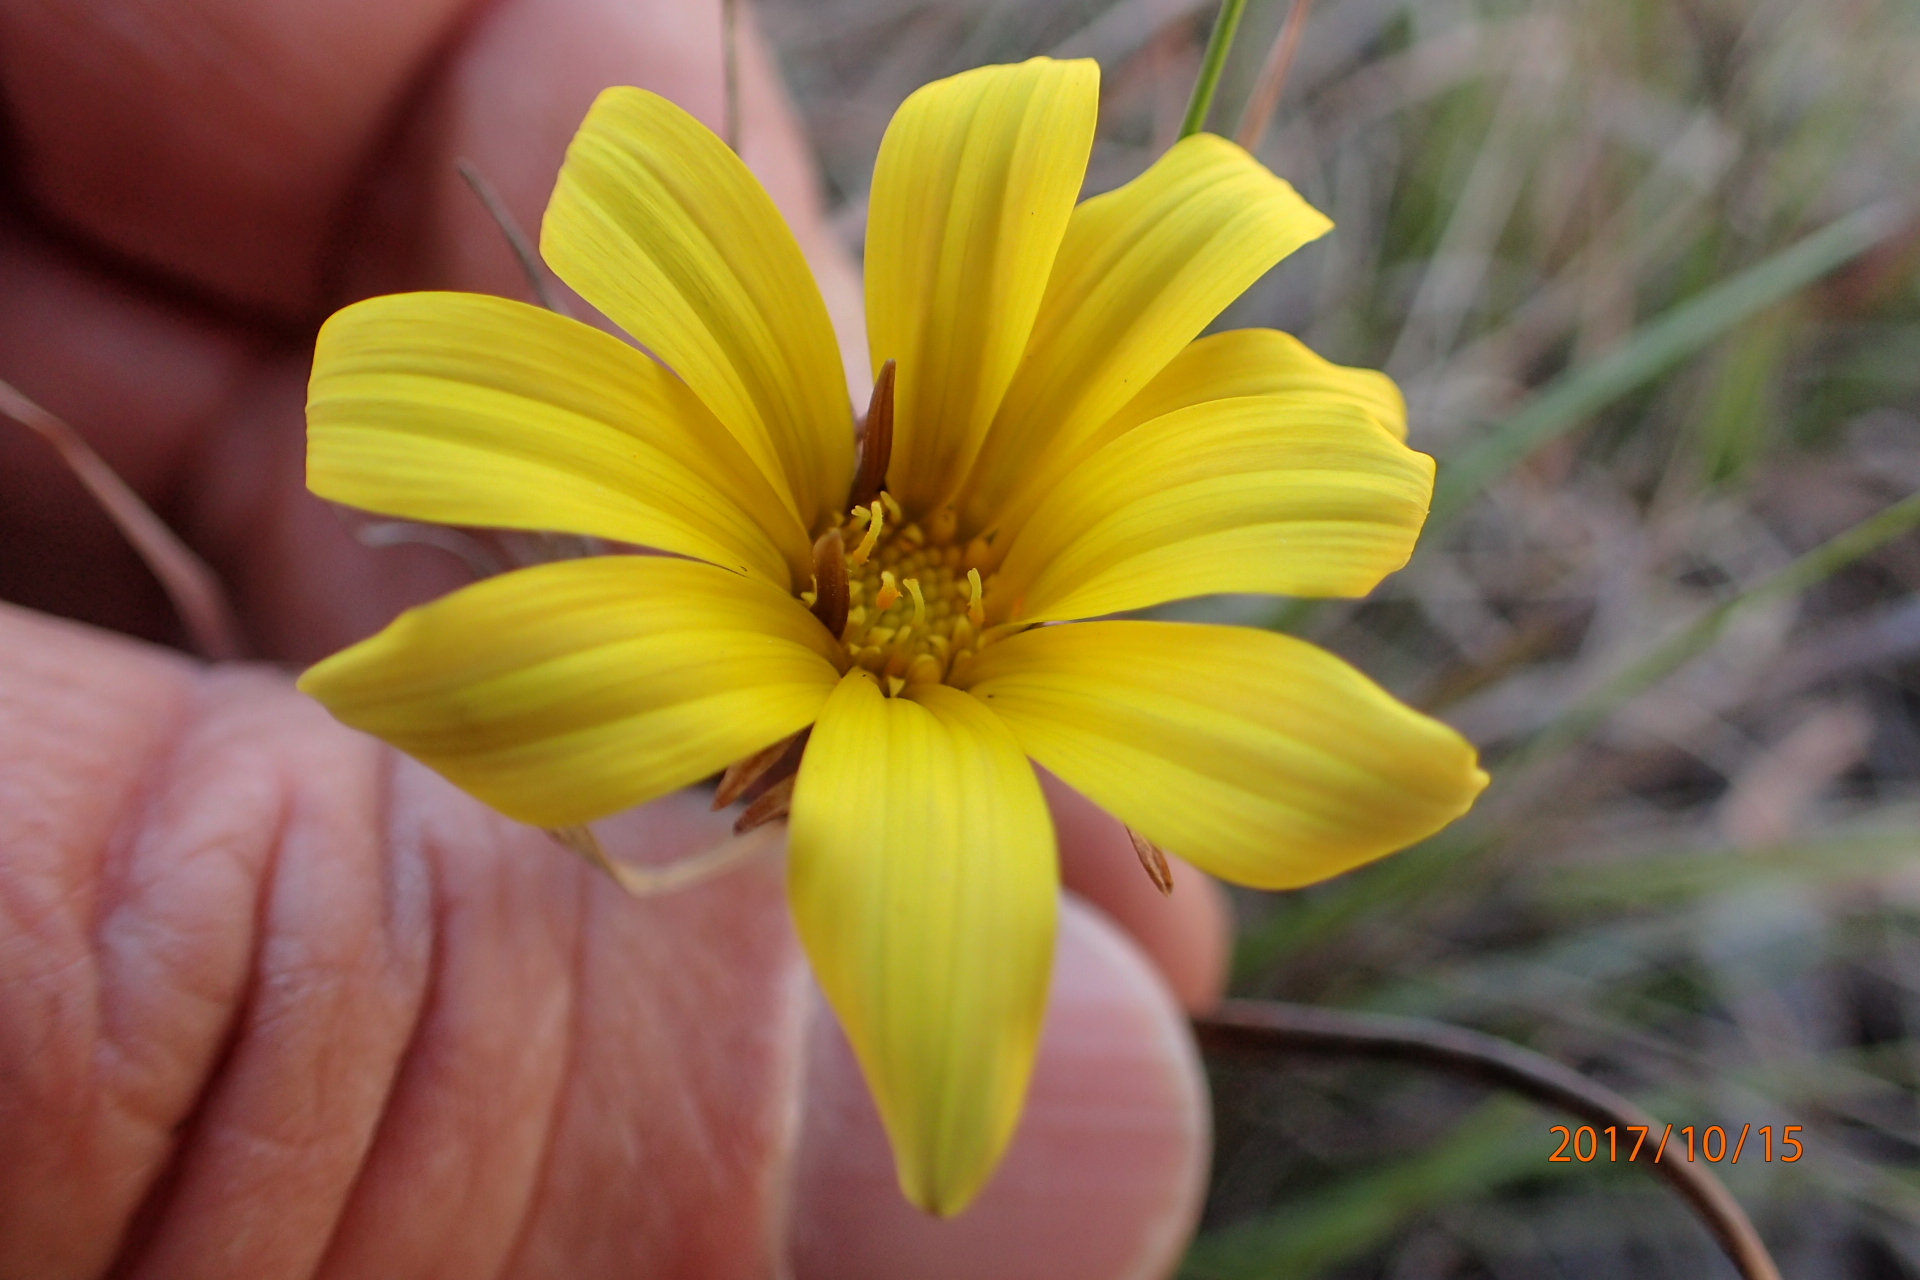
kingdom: Plantae
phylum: Tracheophyta
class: Magnoliopsida
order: Asterales
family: Asteraceae
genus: Gazania
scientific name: Gazania krebsiana
